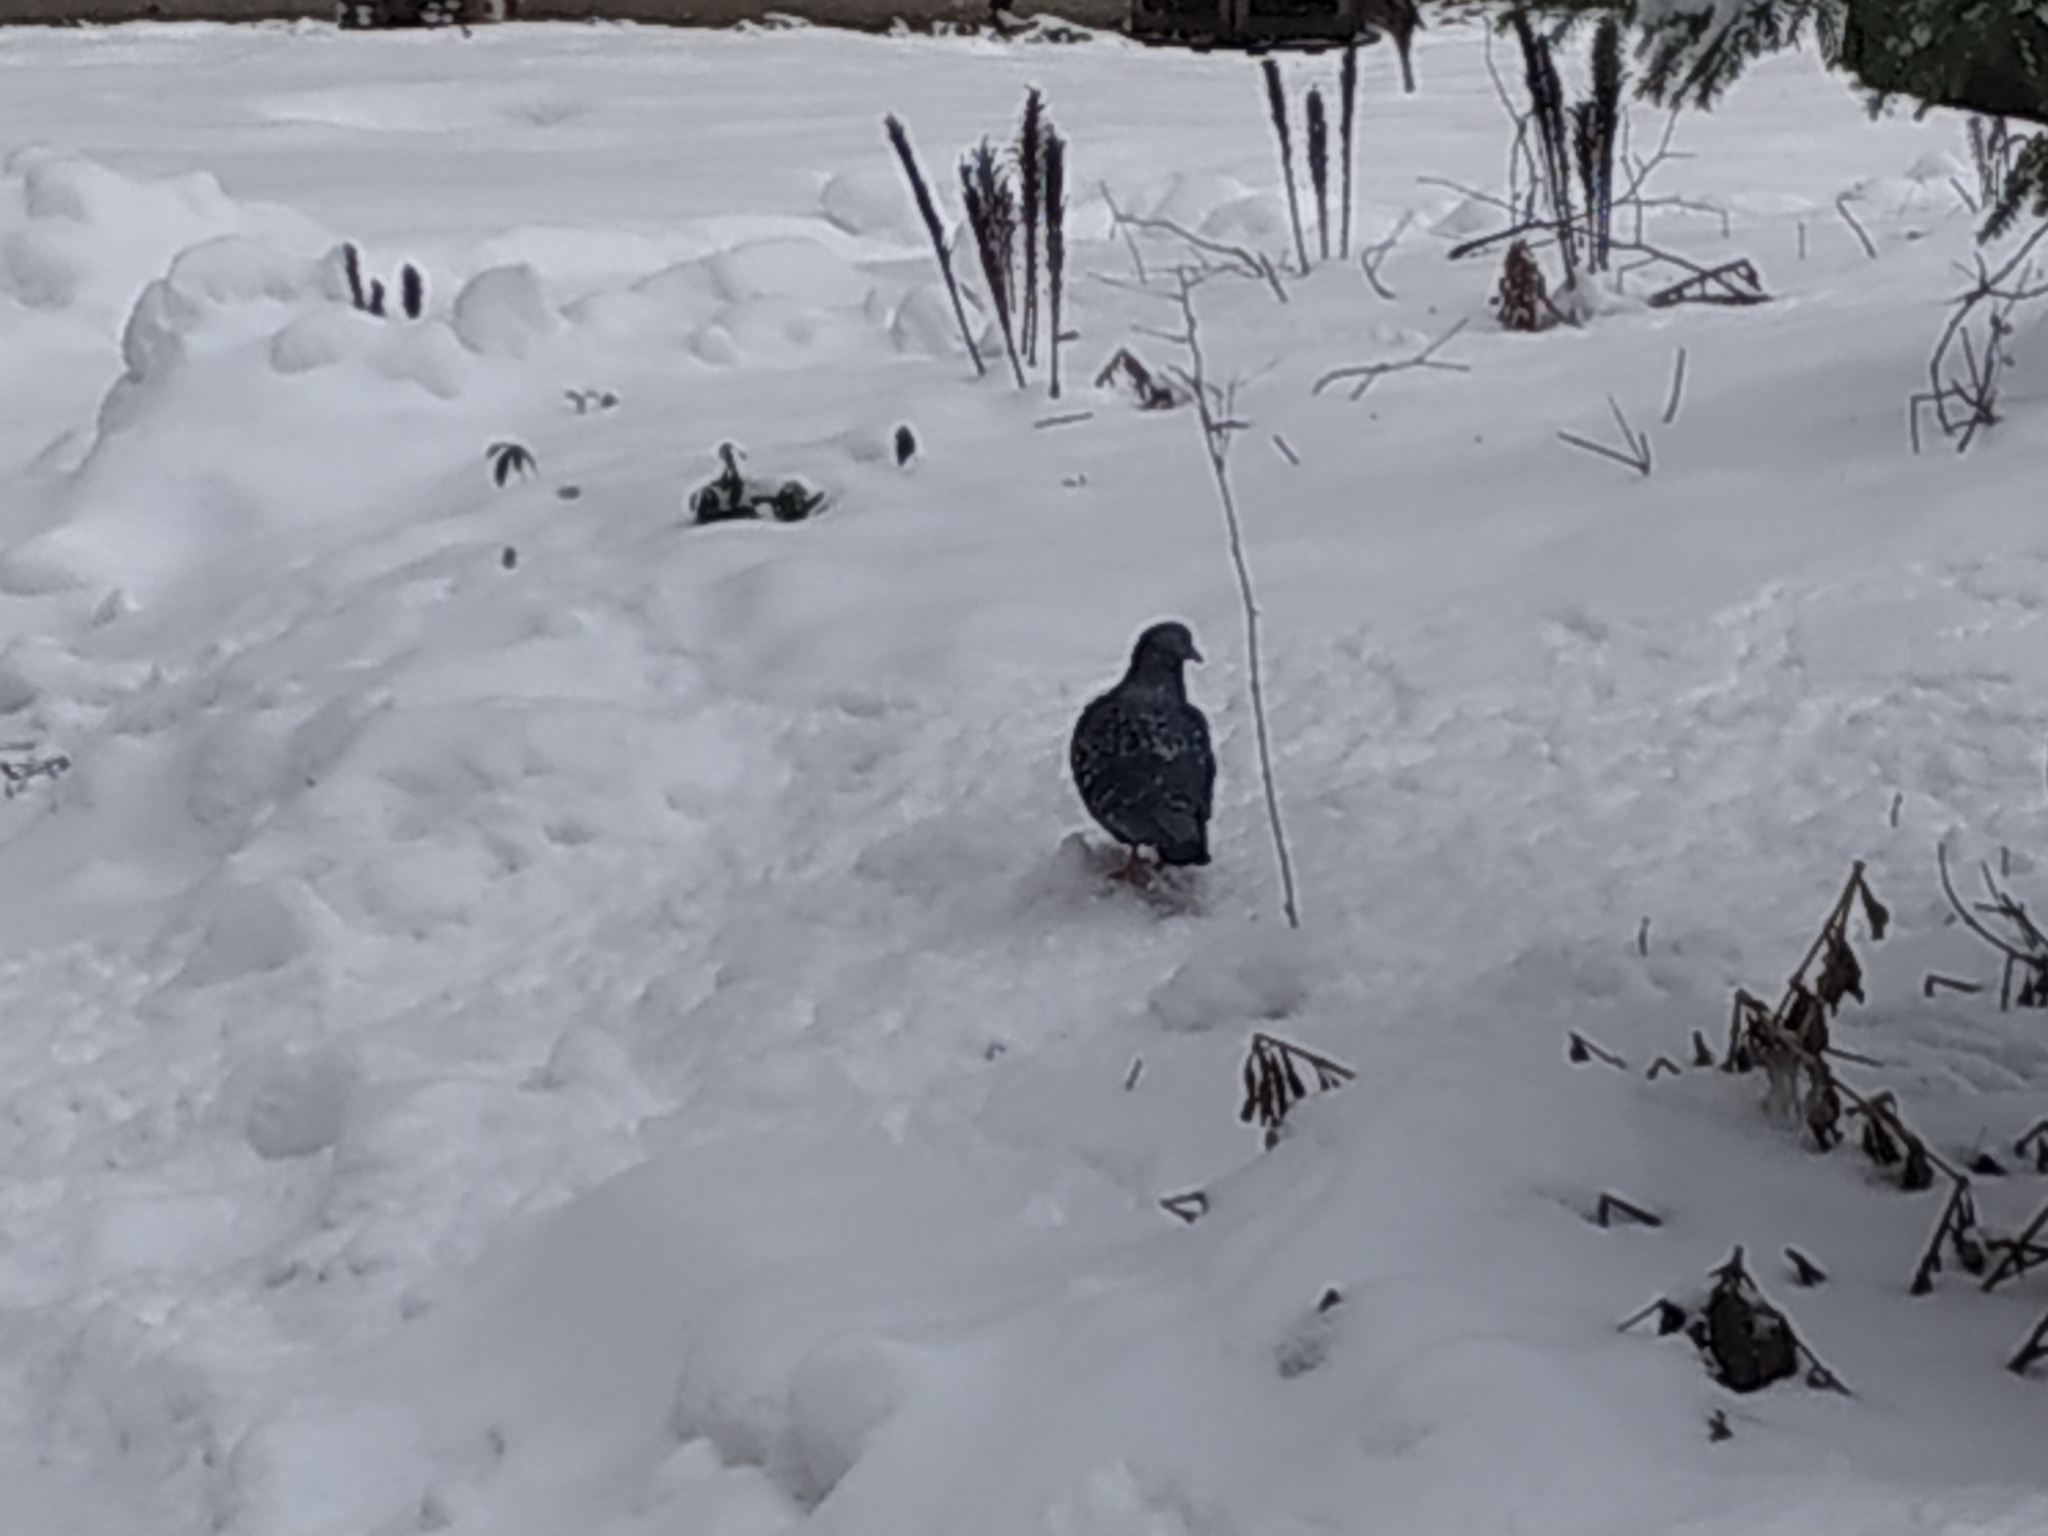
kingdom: Animalia
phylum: Chordata
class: Aves
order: Columbiformes
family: Columbidae
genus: Columba
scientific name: Columba livia
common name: Rock pigeon
